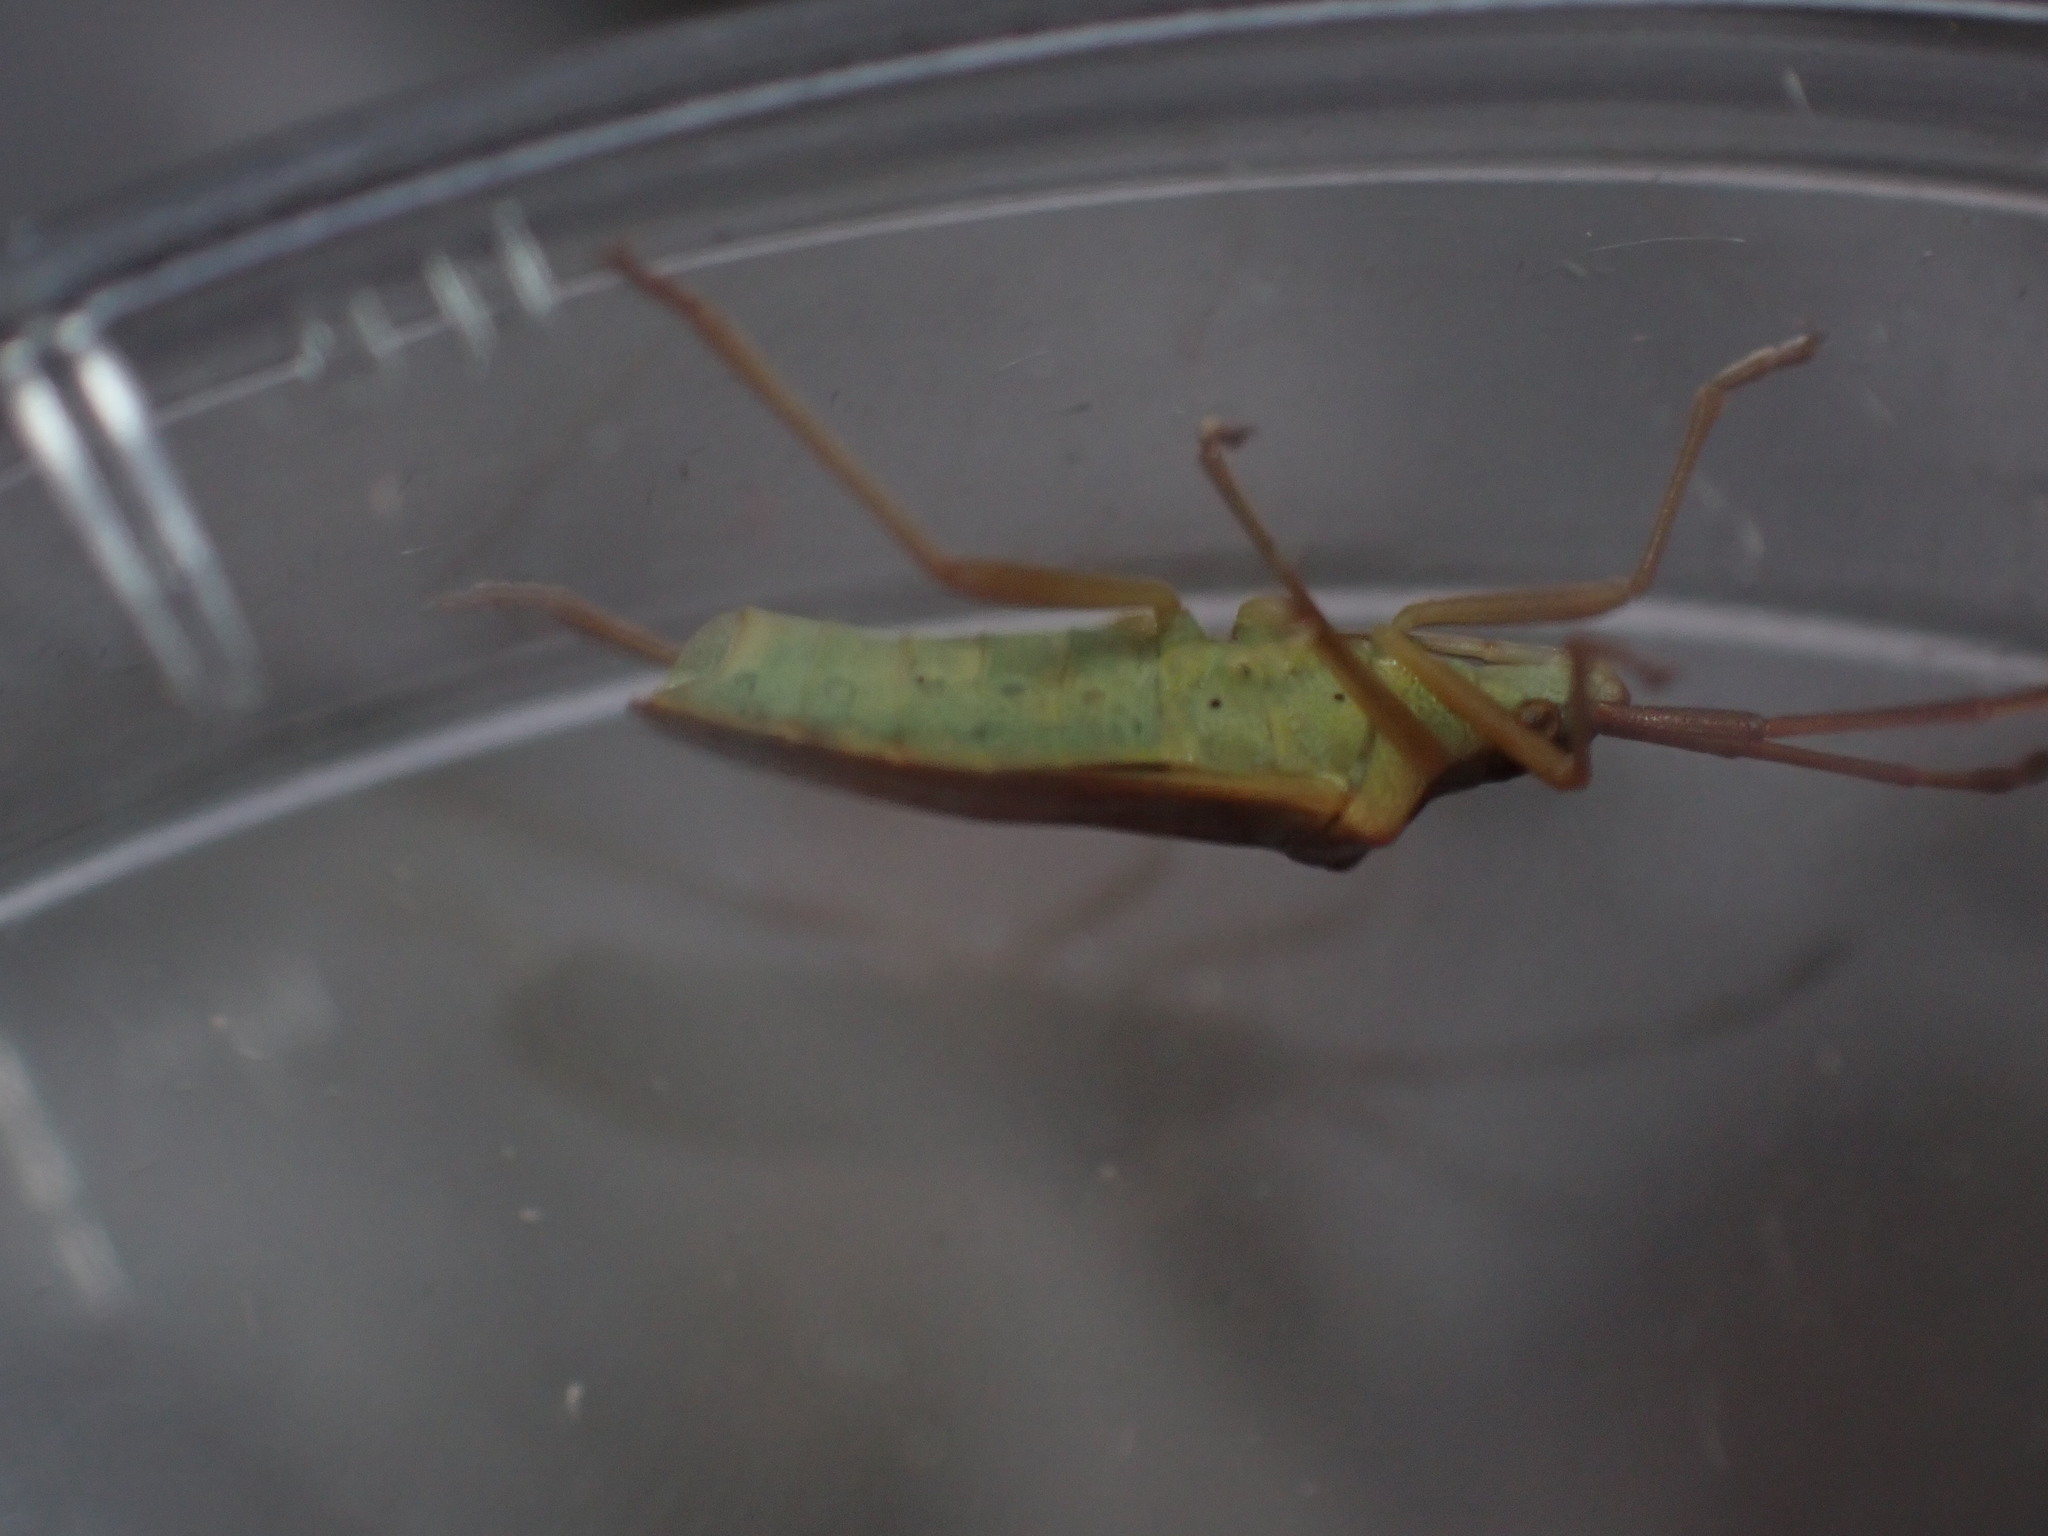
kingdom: Animalia
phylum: Arthropoda
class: Insecta
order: Hemiptera
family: Coreidae
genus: Gonocerus
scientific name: Gonocerus acuteangulatus
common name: Box bug
